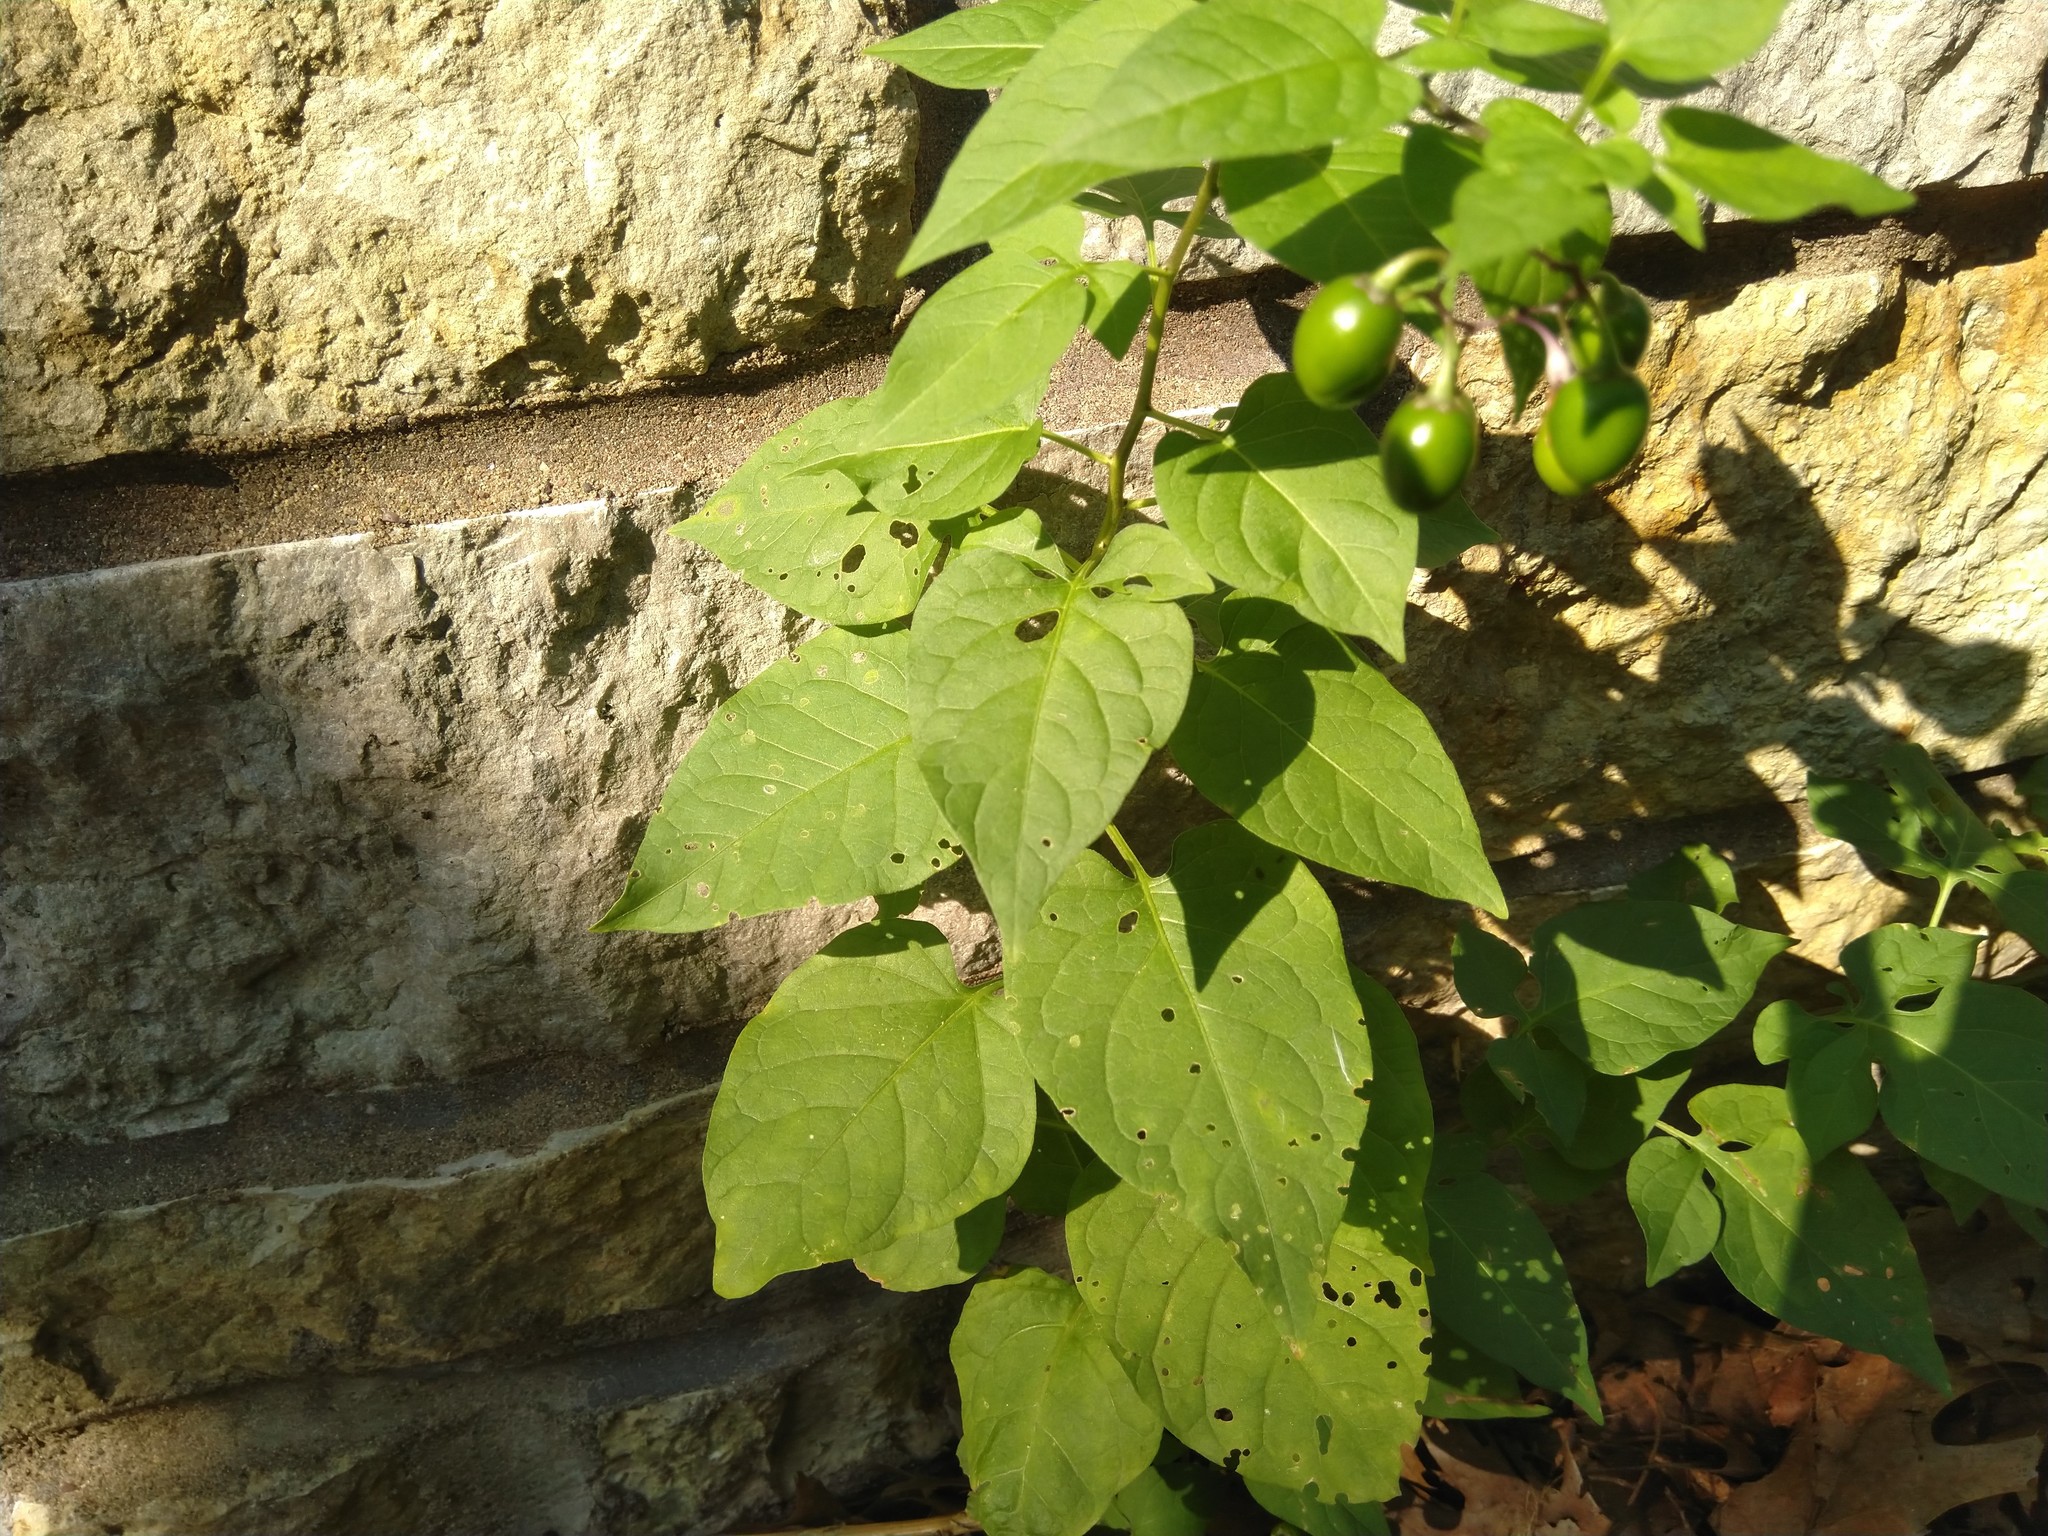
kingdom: Plantae
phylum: Tracheophyta
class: Magnoliopsida
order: Solanales
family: Solanaceae
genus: Solanum
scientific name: Solanum dulcamara
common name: Climbing nightshade
